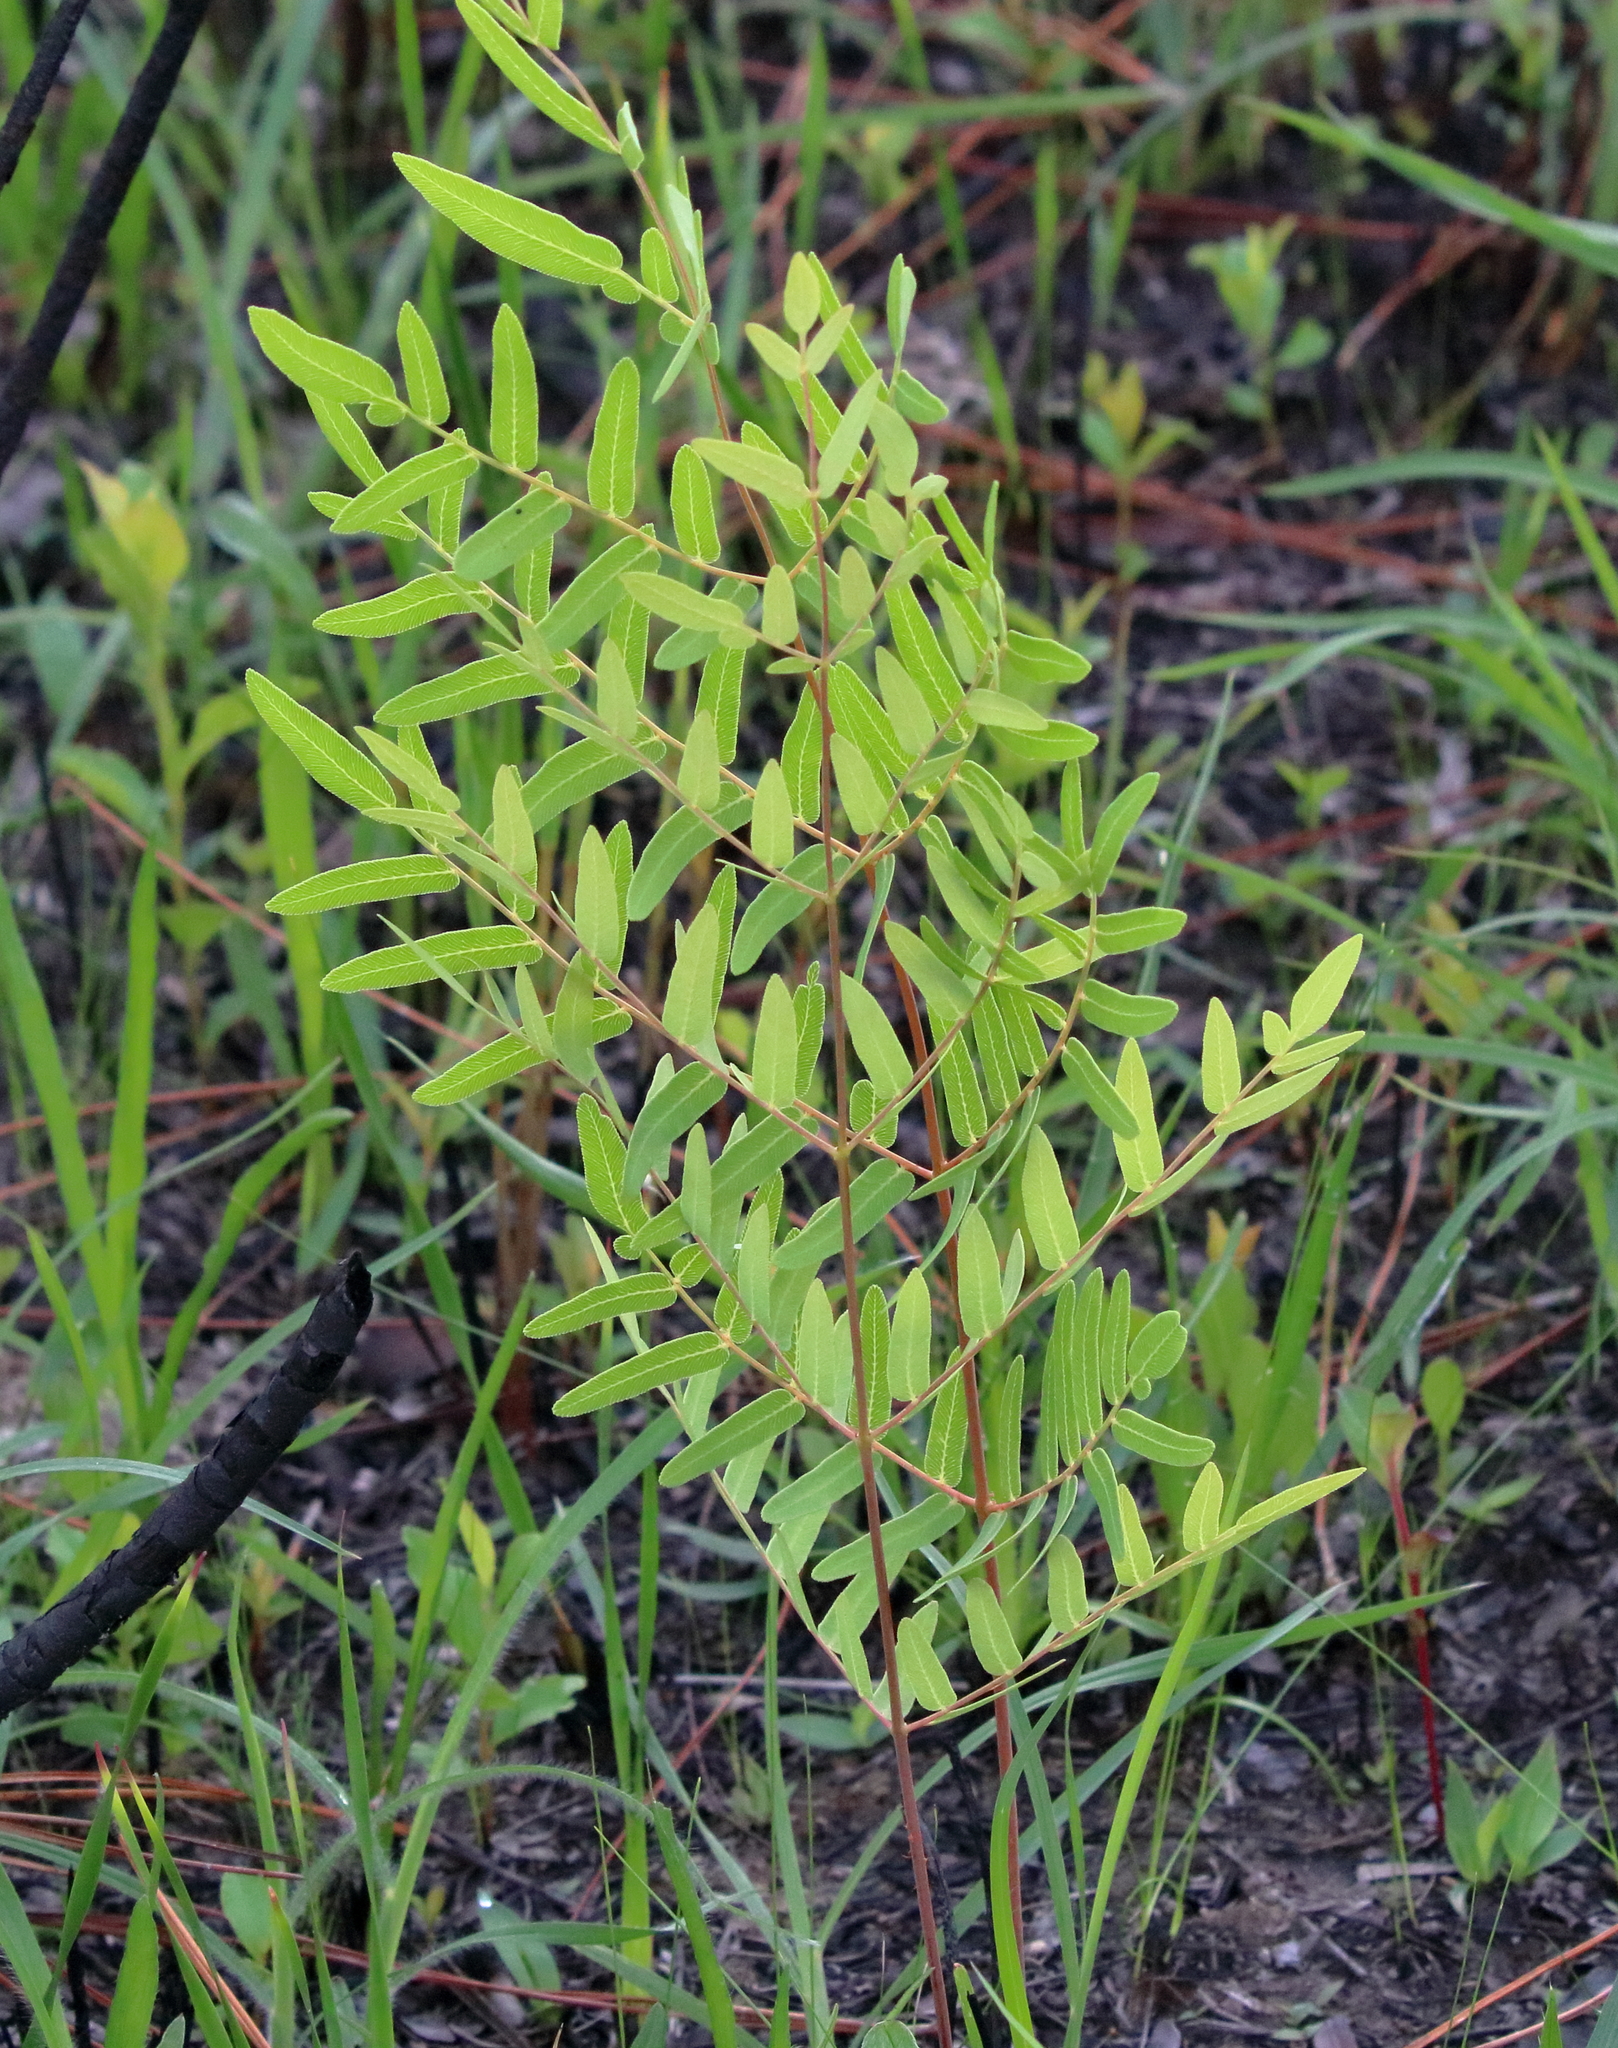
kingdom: Plantae
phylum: Tracheophyta
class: Polypodiopsida
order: Osmundales
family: Osmundaceae
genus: Osmunda
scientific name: Osmunda spectabilis
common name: American royal fern
